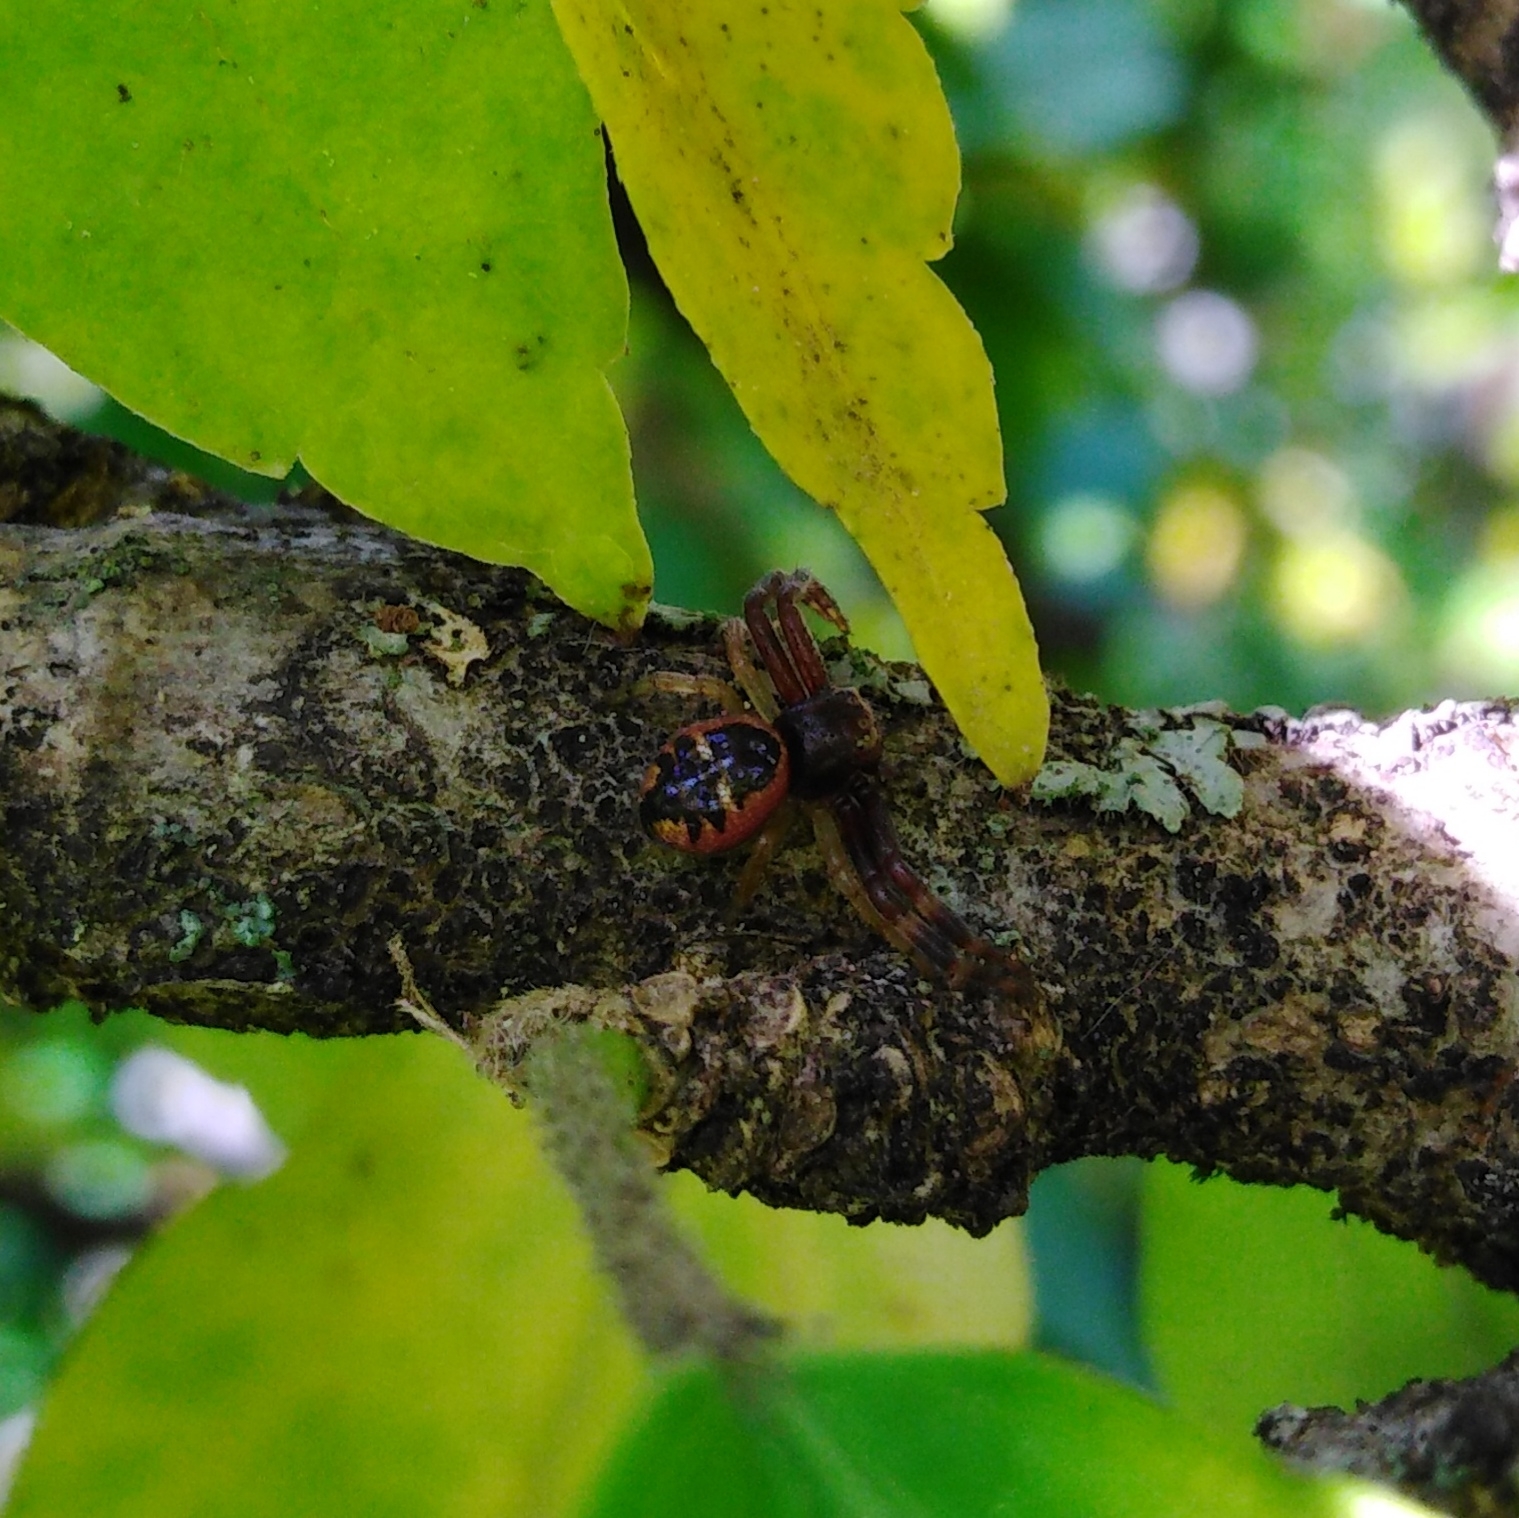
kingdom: Animalia
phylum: Arthropoda
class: Arachnida
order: Araneae
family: Thomisidae
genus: Synema
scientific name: Synema globosum
